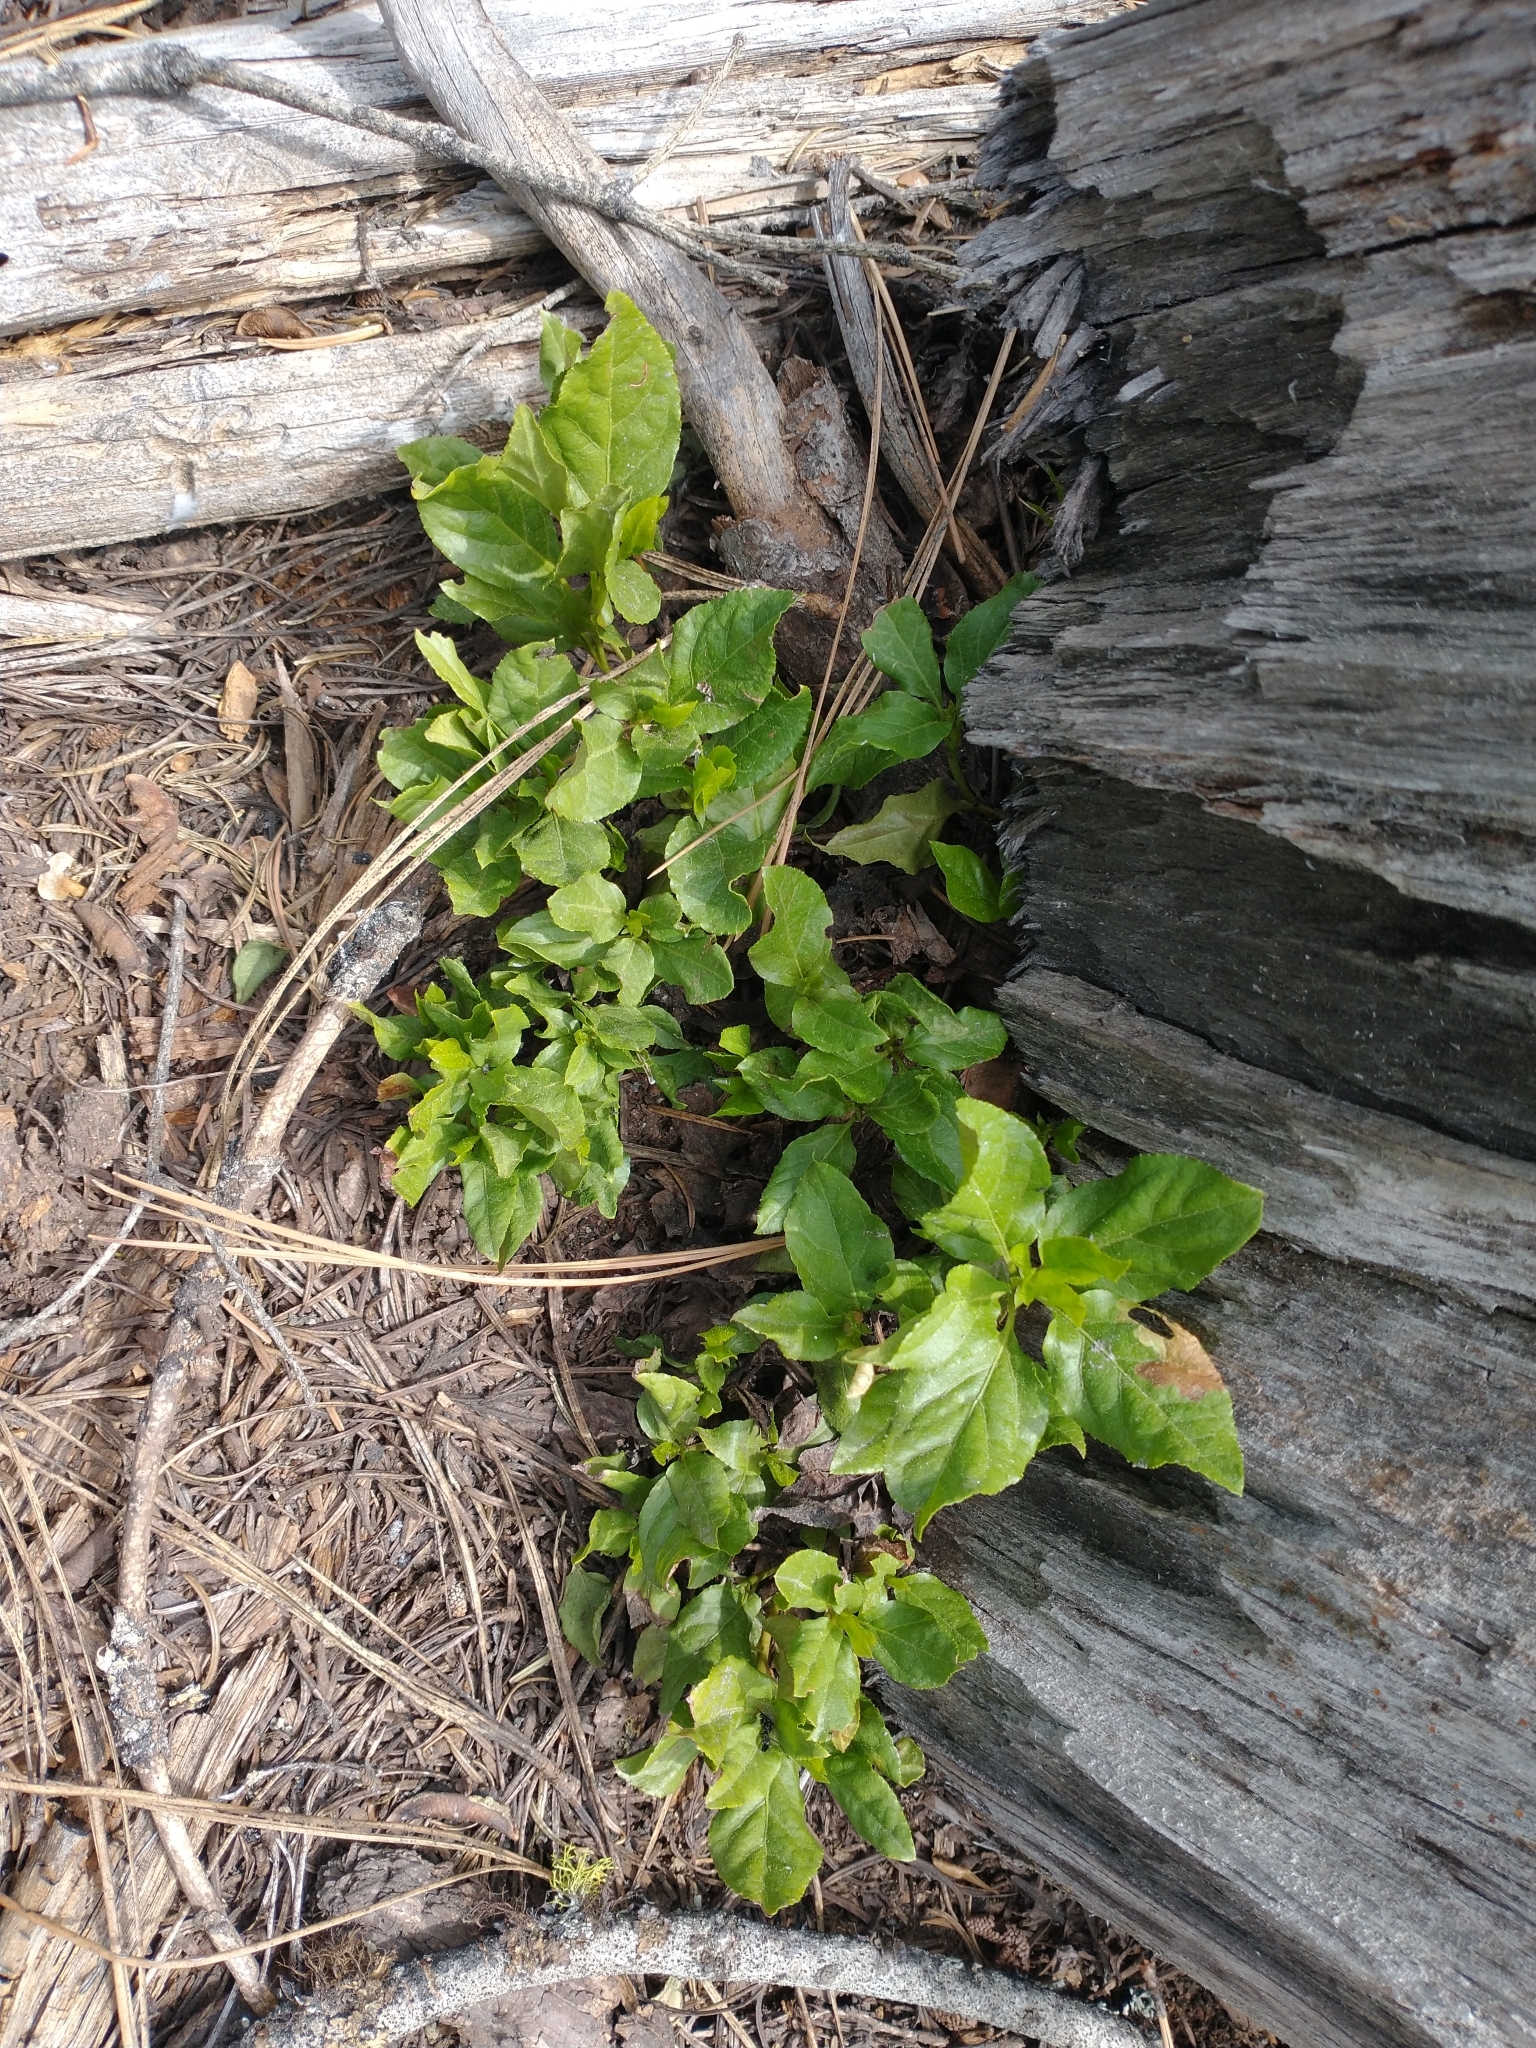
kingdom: Plantae
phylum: Tracheophyta
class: Magnoliopsida
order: Ericales
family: Ericaceae
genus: Orthilia
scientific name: Orthilia secunda
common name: One-sided orthilia
